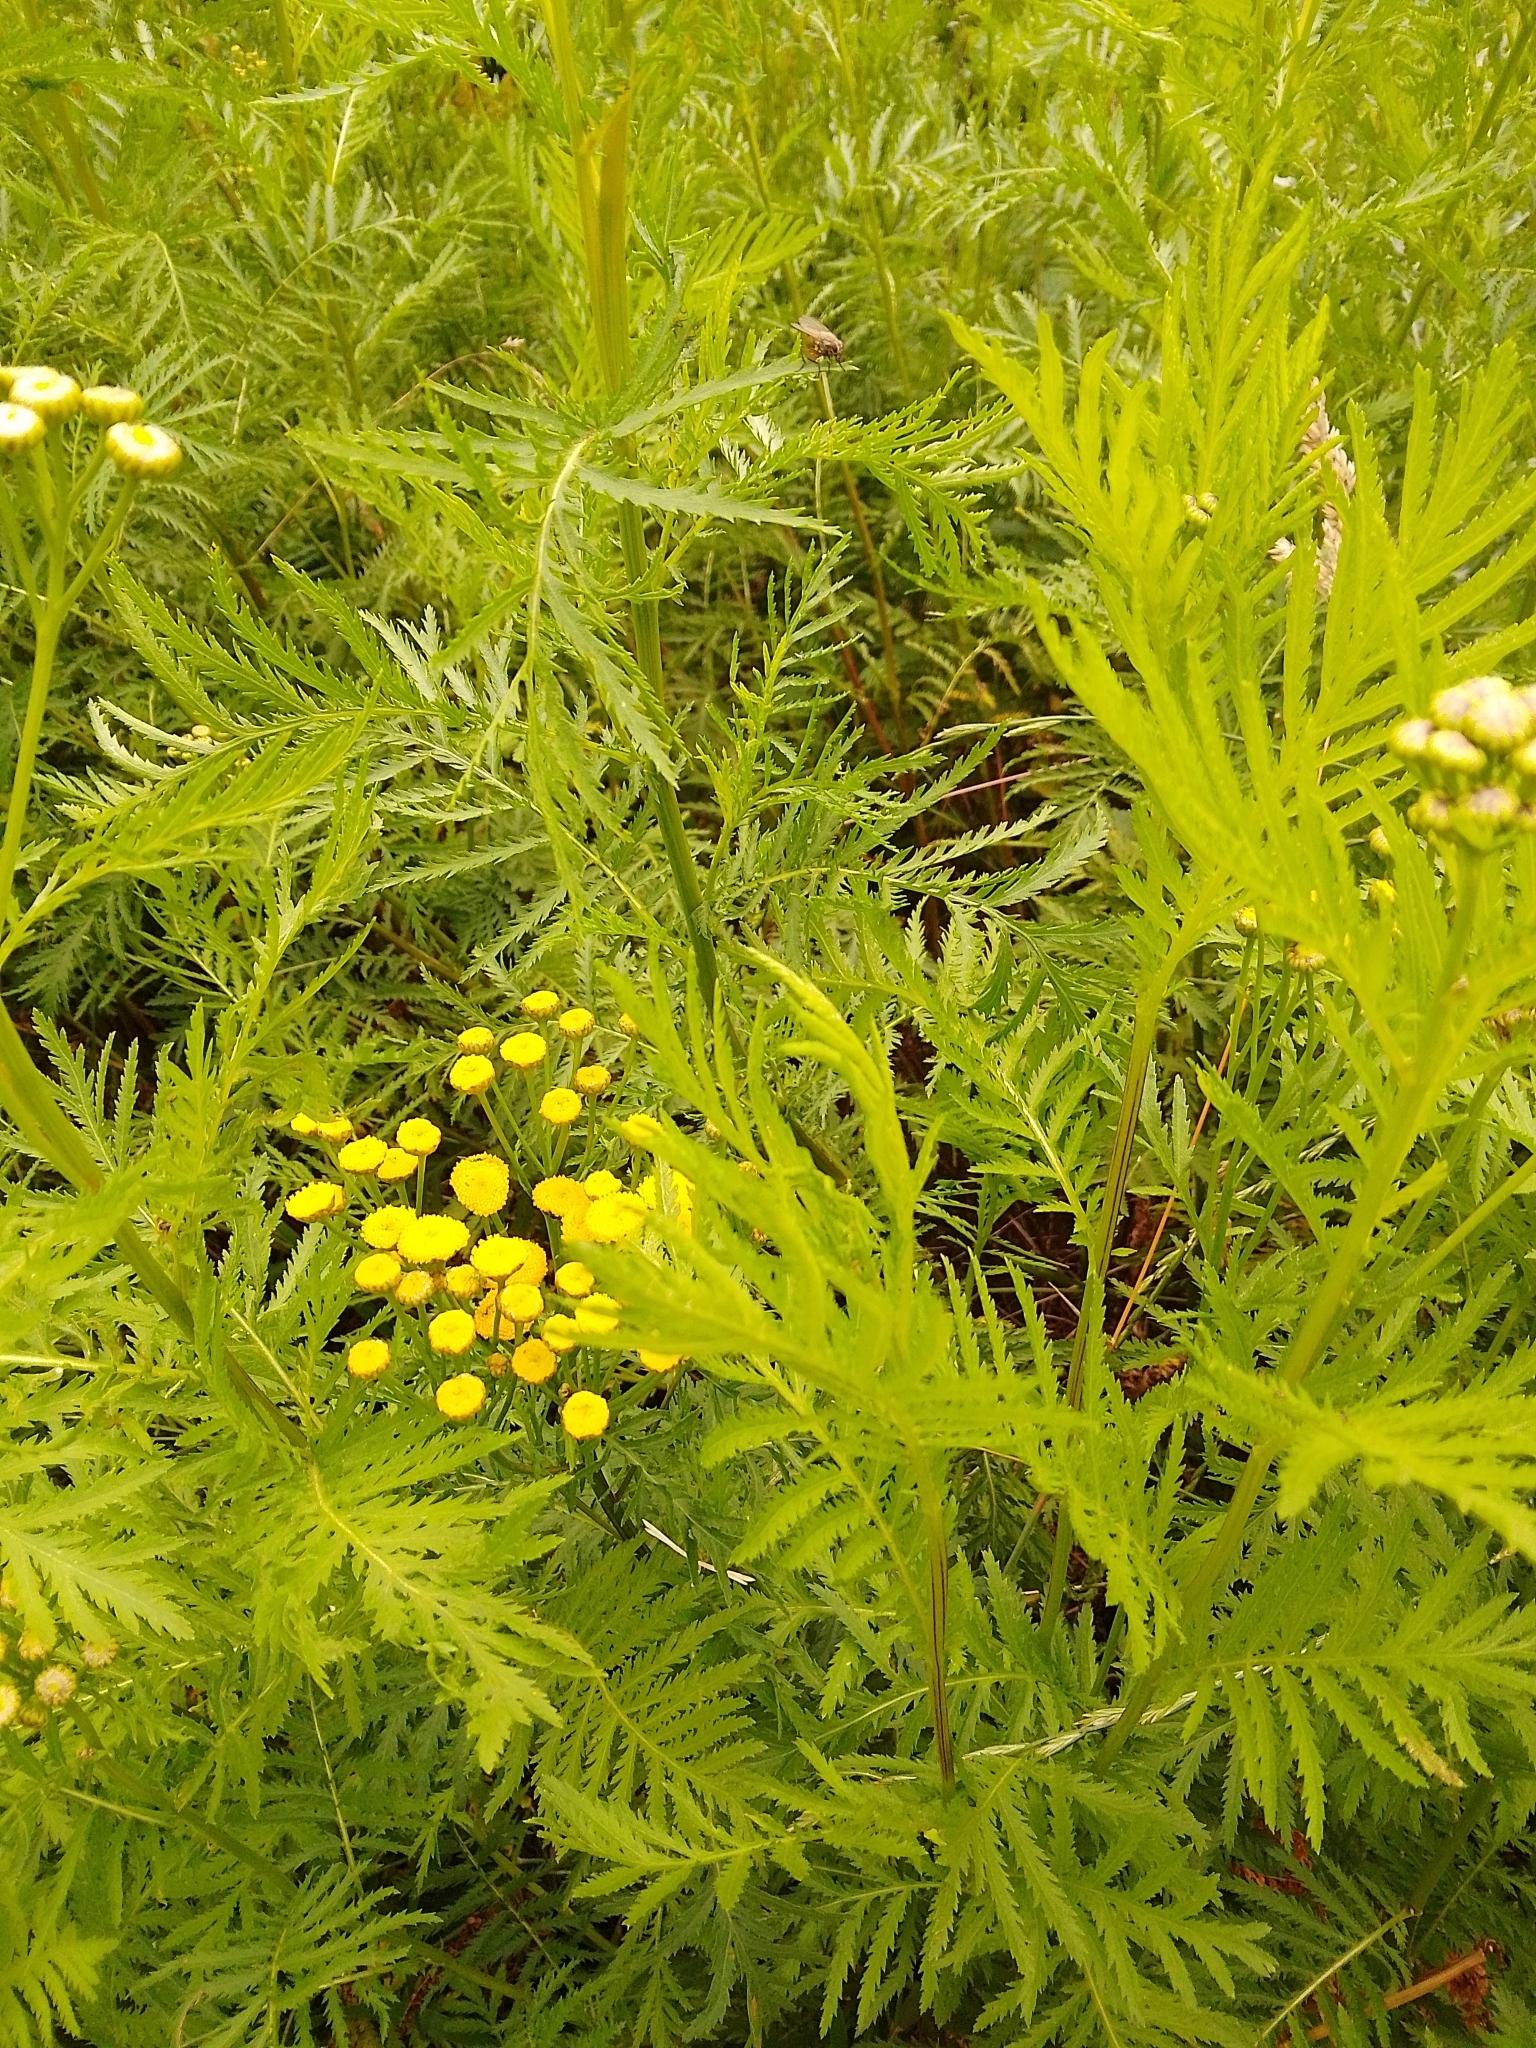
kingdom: Plantae
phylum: Tracheophyta
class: Magnoliopsida
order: Asterales
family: Asteraceae
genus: Tanacetum
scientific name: Tanacetum vulgare
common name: Common tansy
